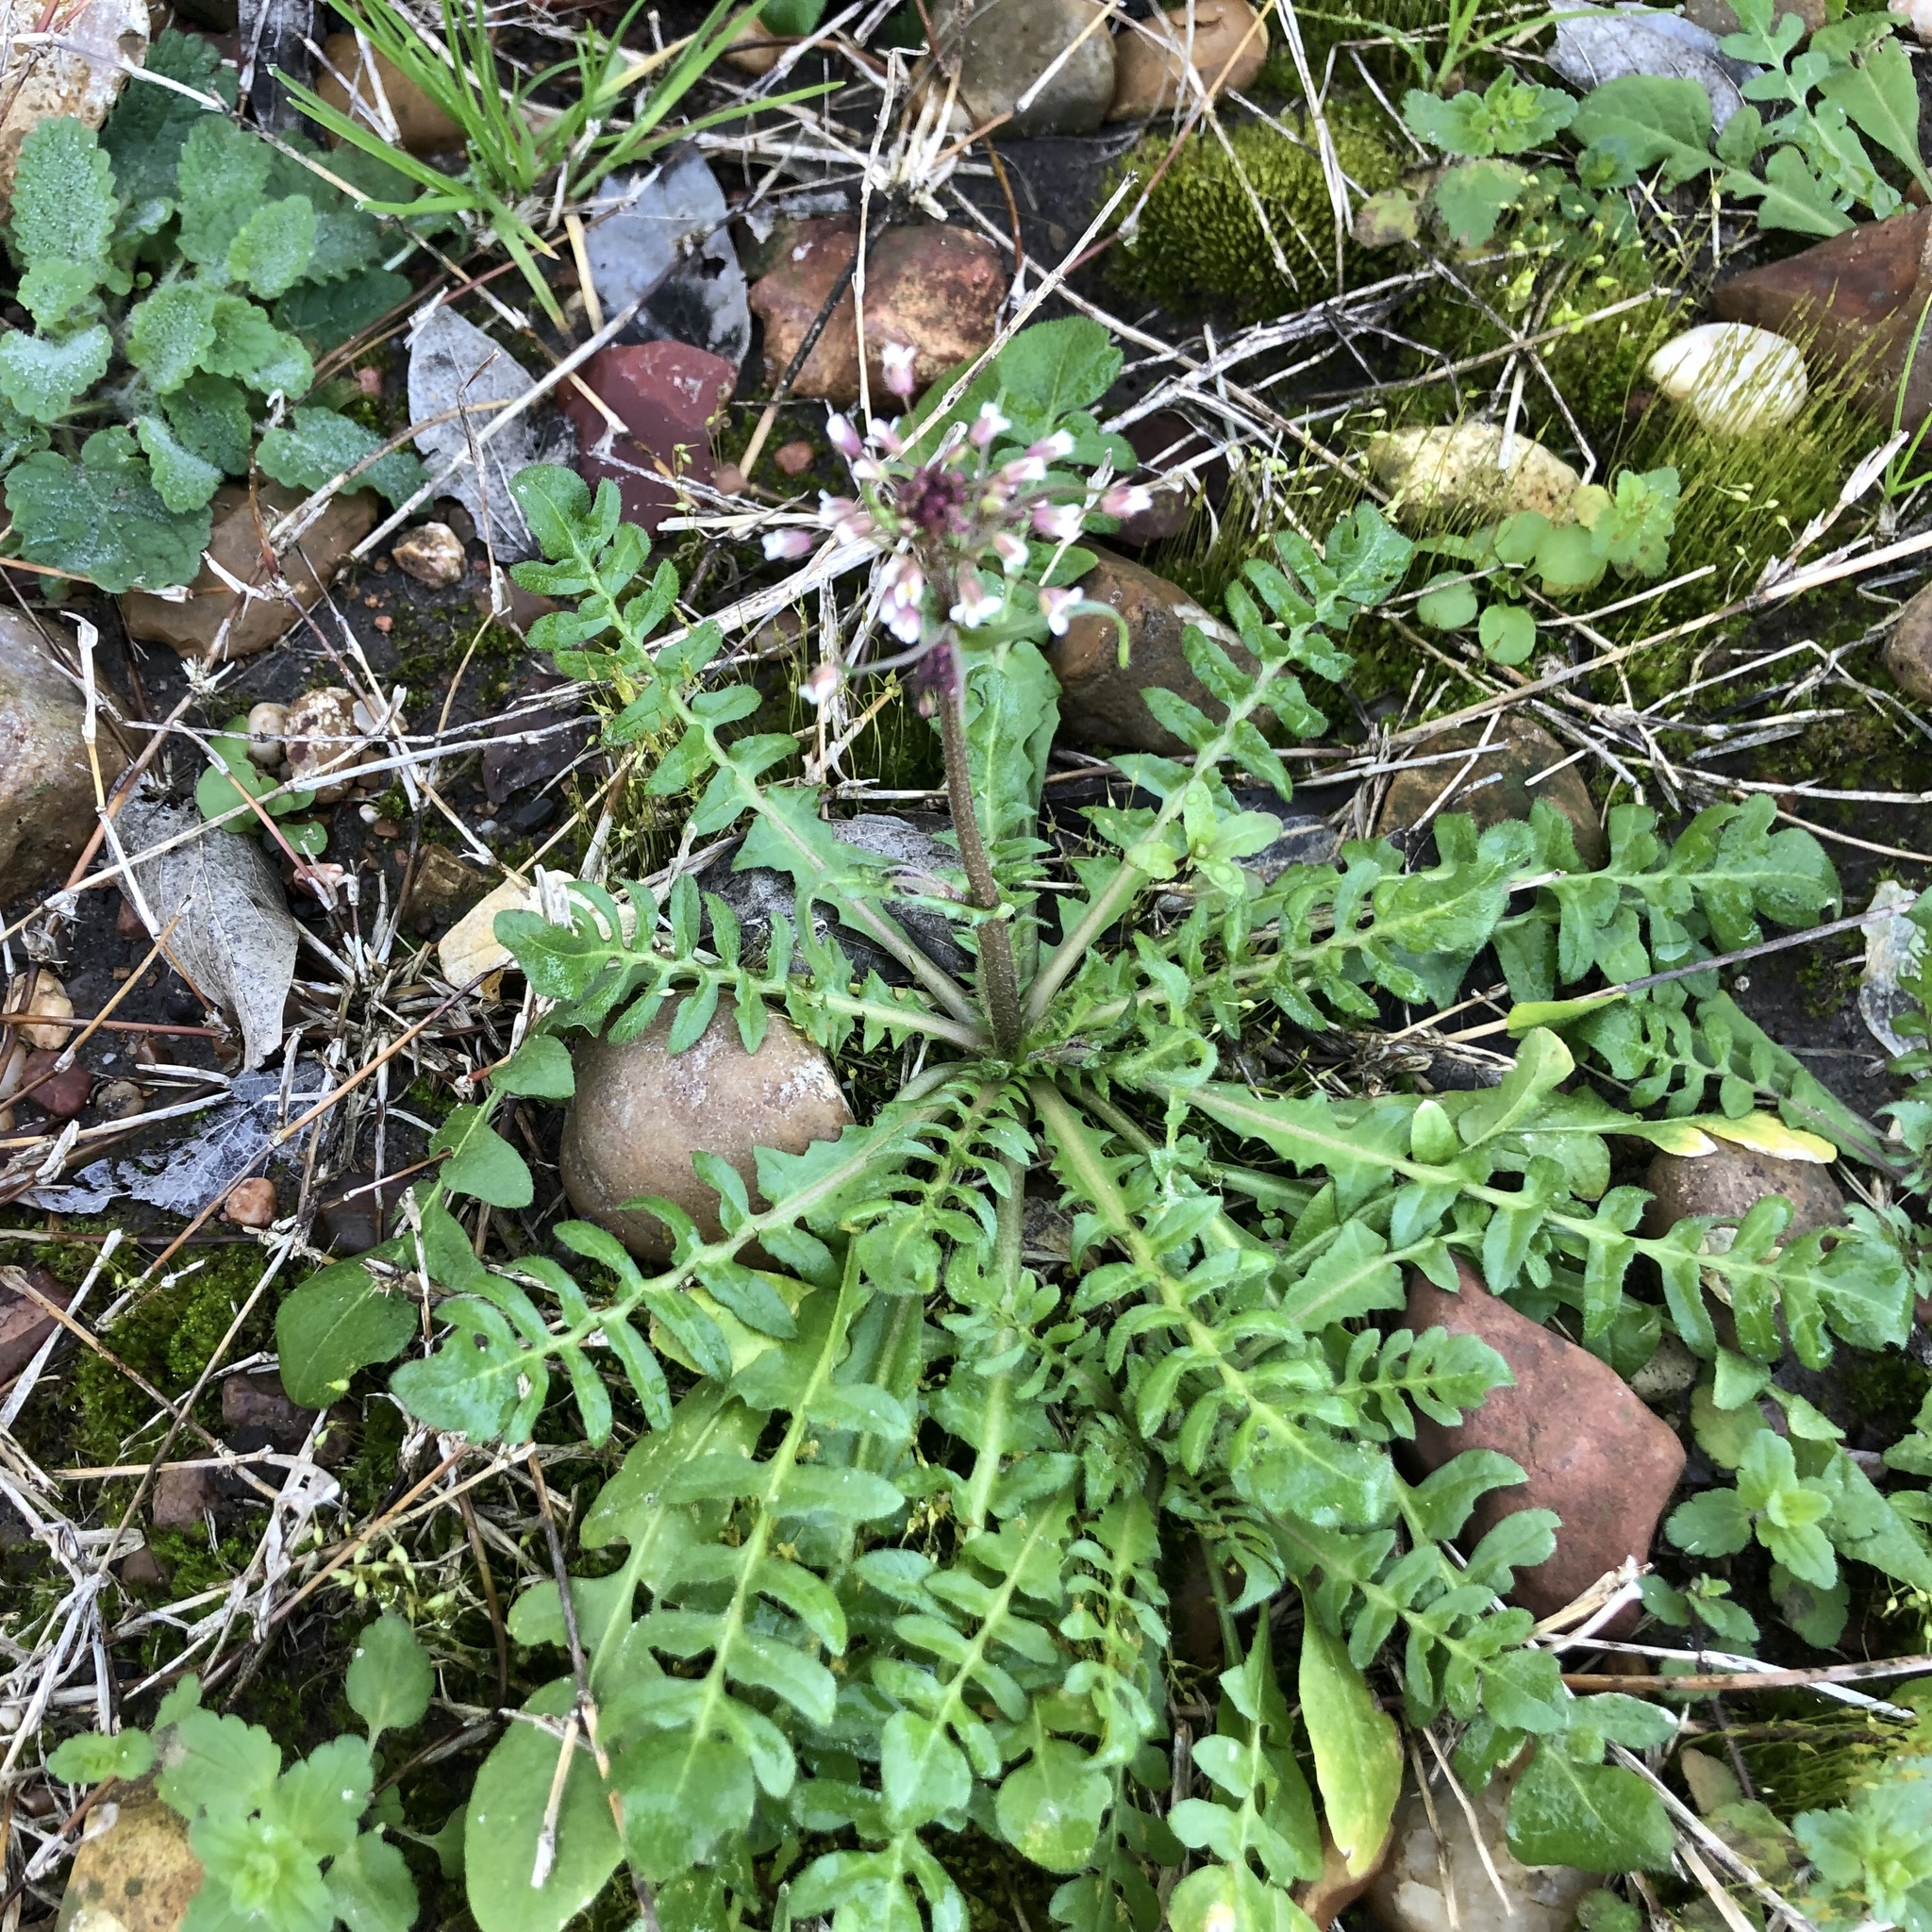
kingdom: Plantae
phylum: Tracheophyta
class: Magnoliopsida
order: Brassicales
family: Brassicaceae
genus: Capsella
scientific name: Capsella bursa-pastoris
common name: Shepherd's purse
